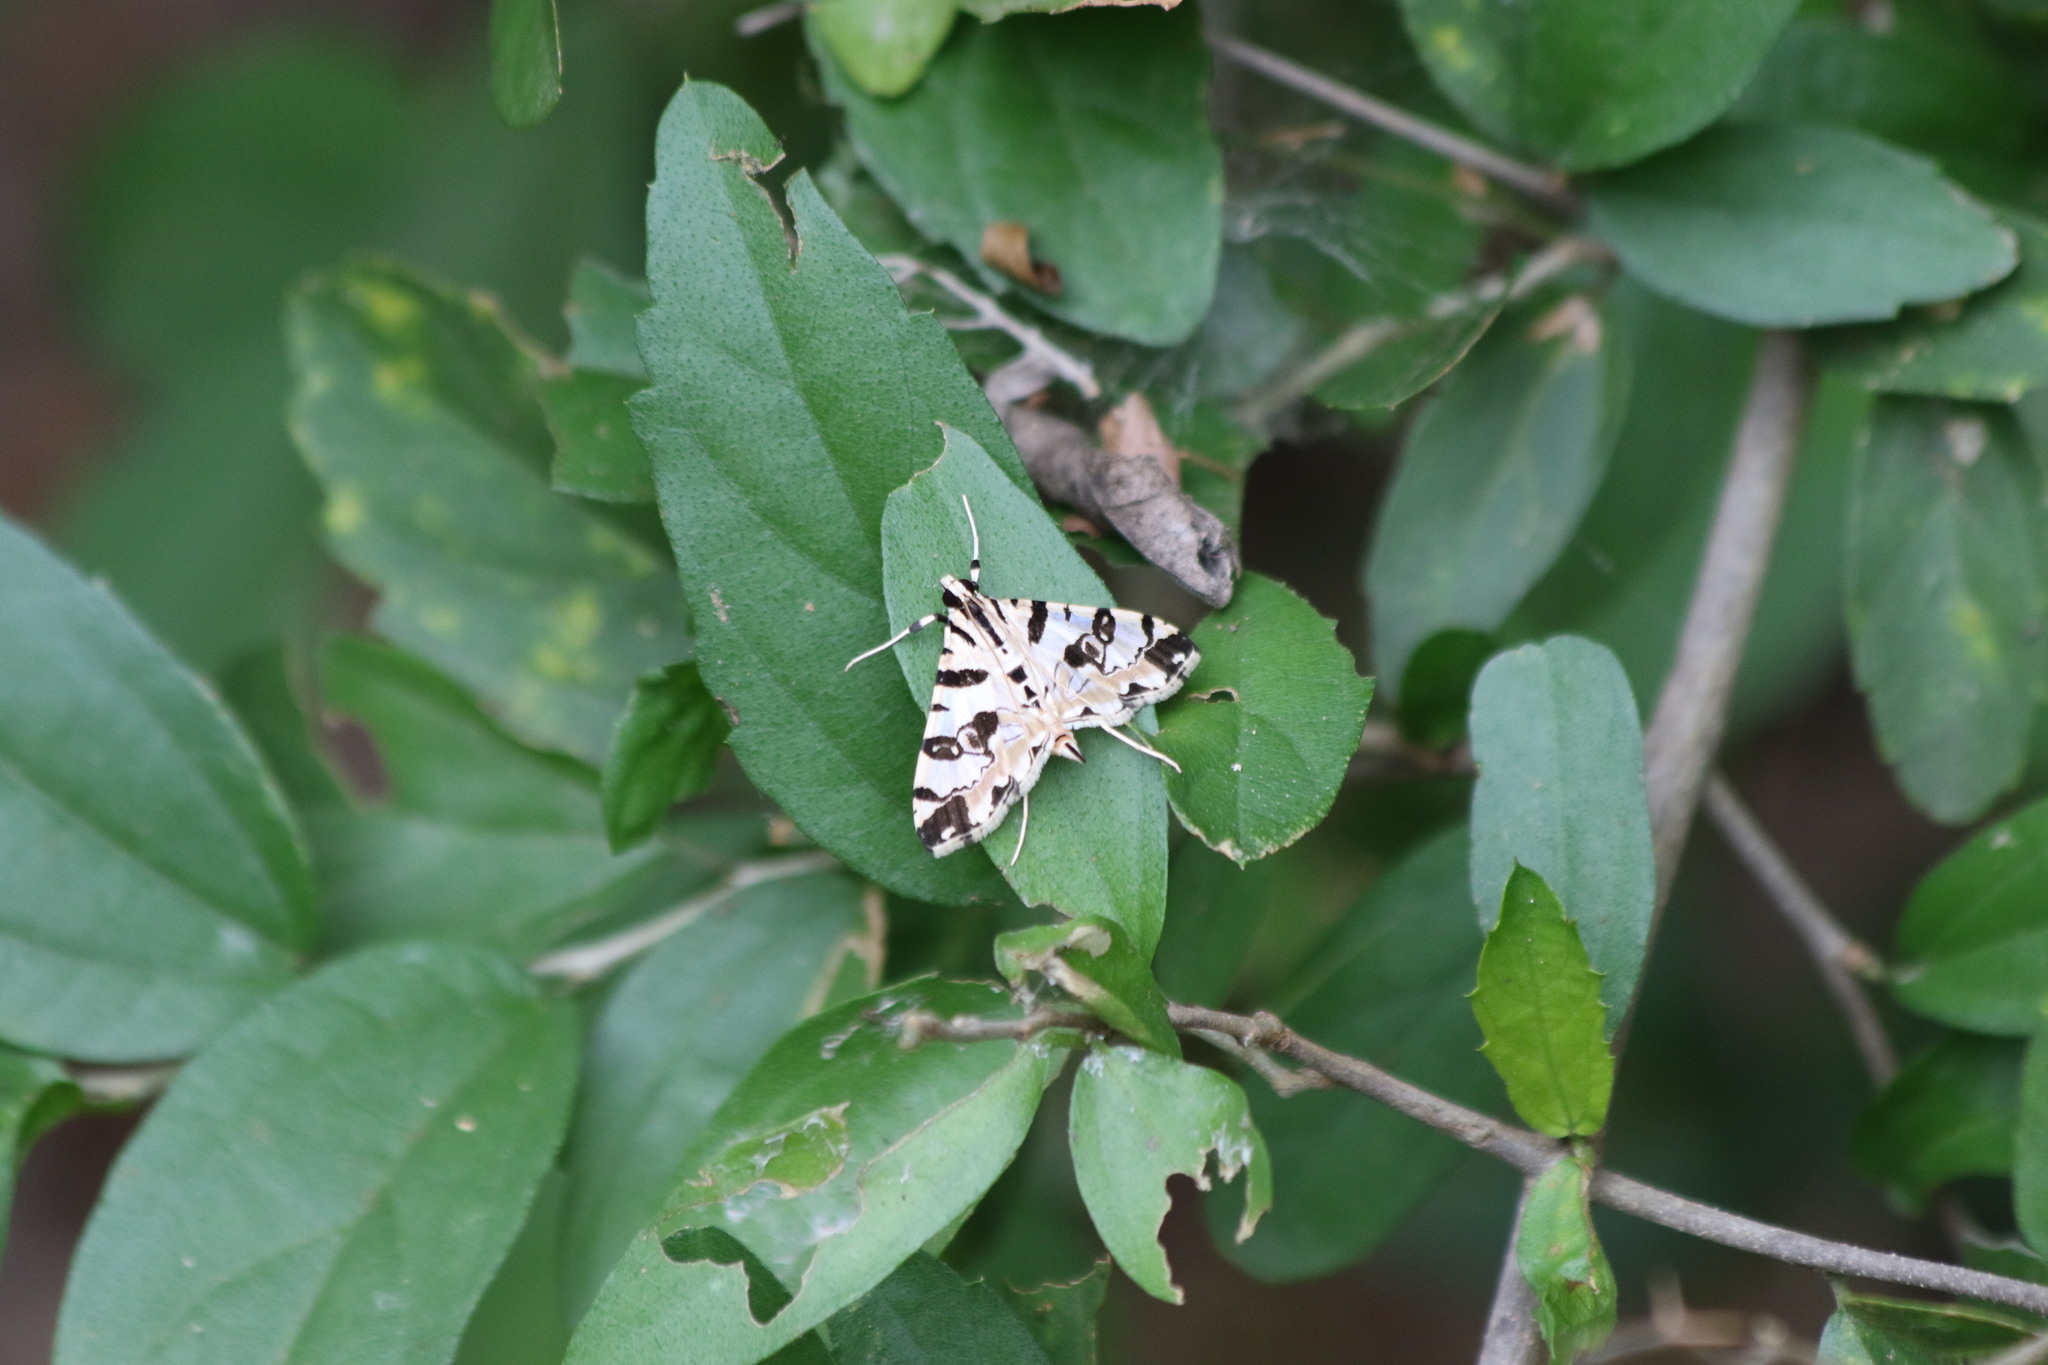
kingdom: Animalia
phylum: Arthropoda
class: Insecta
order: Lepidoptera
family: Crambidae
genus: Conchylodes
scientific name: Conchylodes salamisalis
